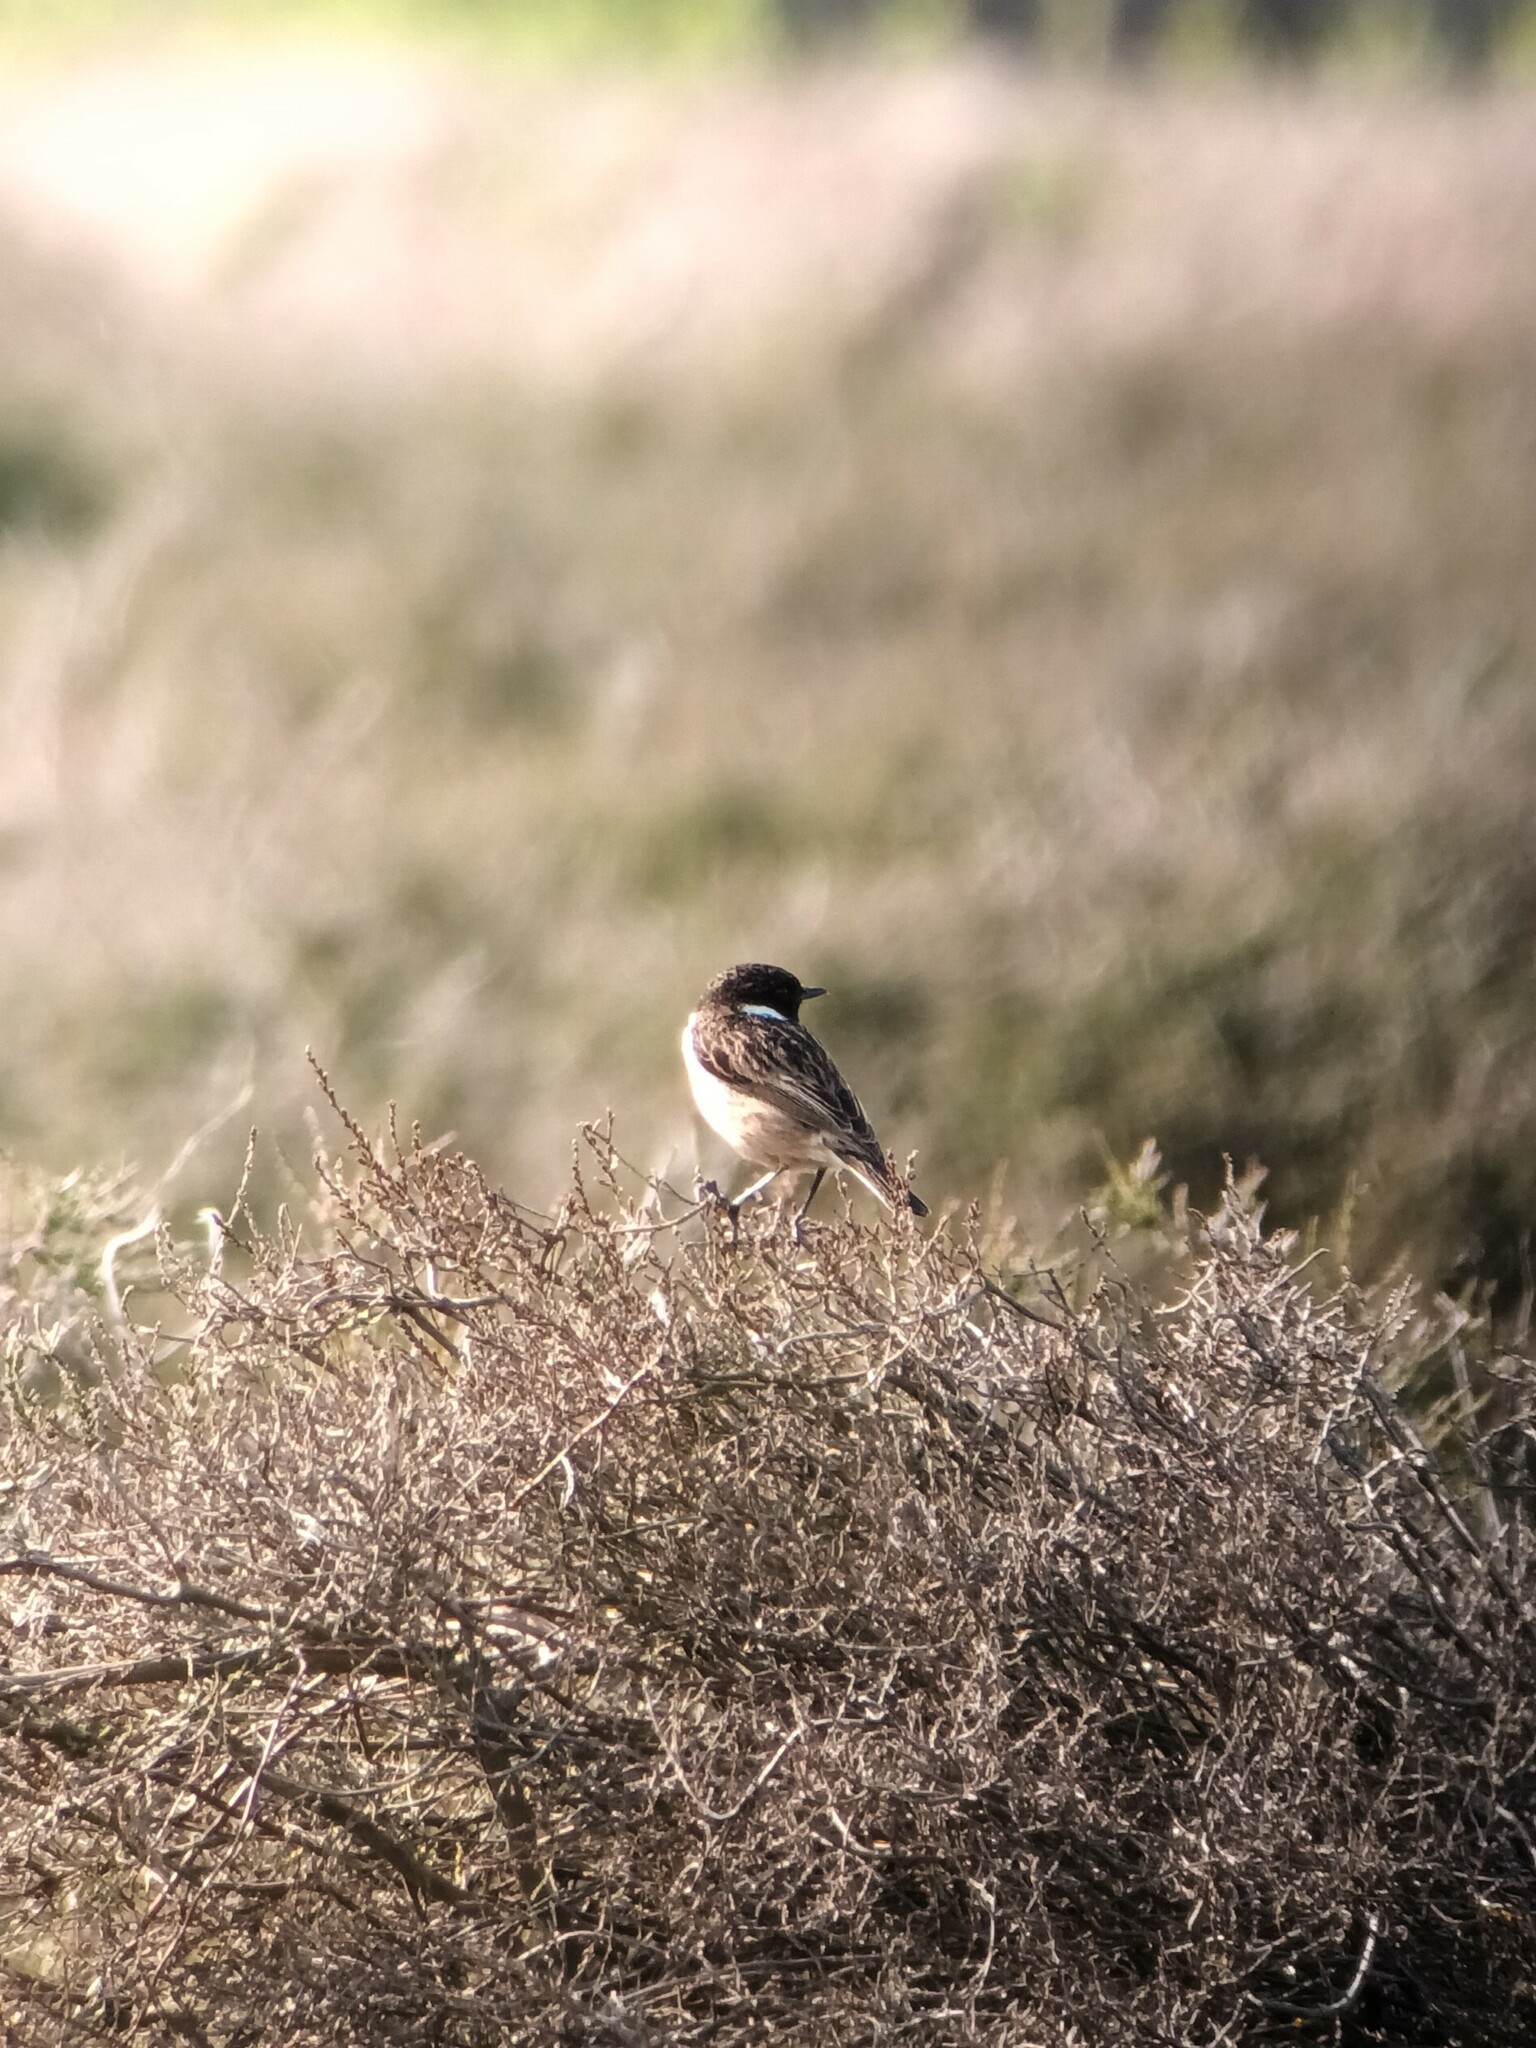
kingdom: Animalia
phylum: Chordata
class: Aves
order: Passeriformes
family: Muscicapidae
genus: Saxicola
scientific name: Saxicola rubicola
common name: European stonechat
